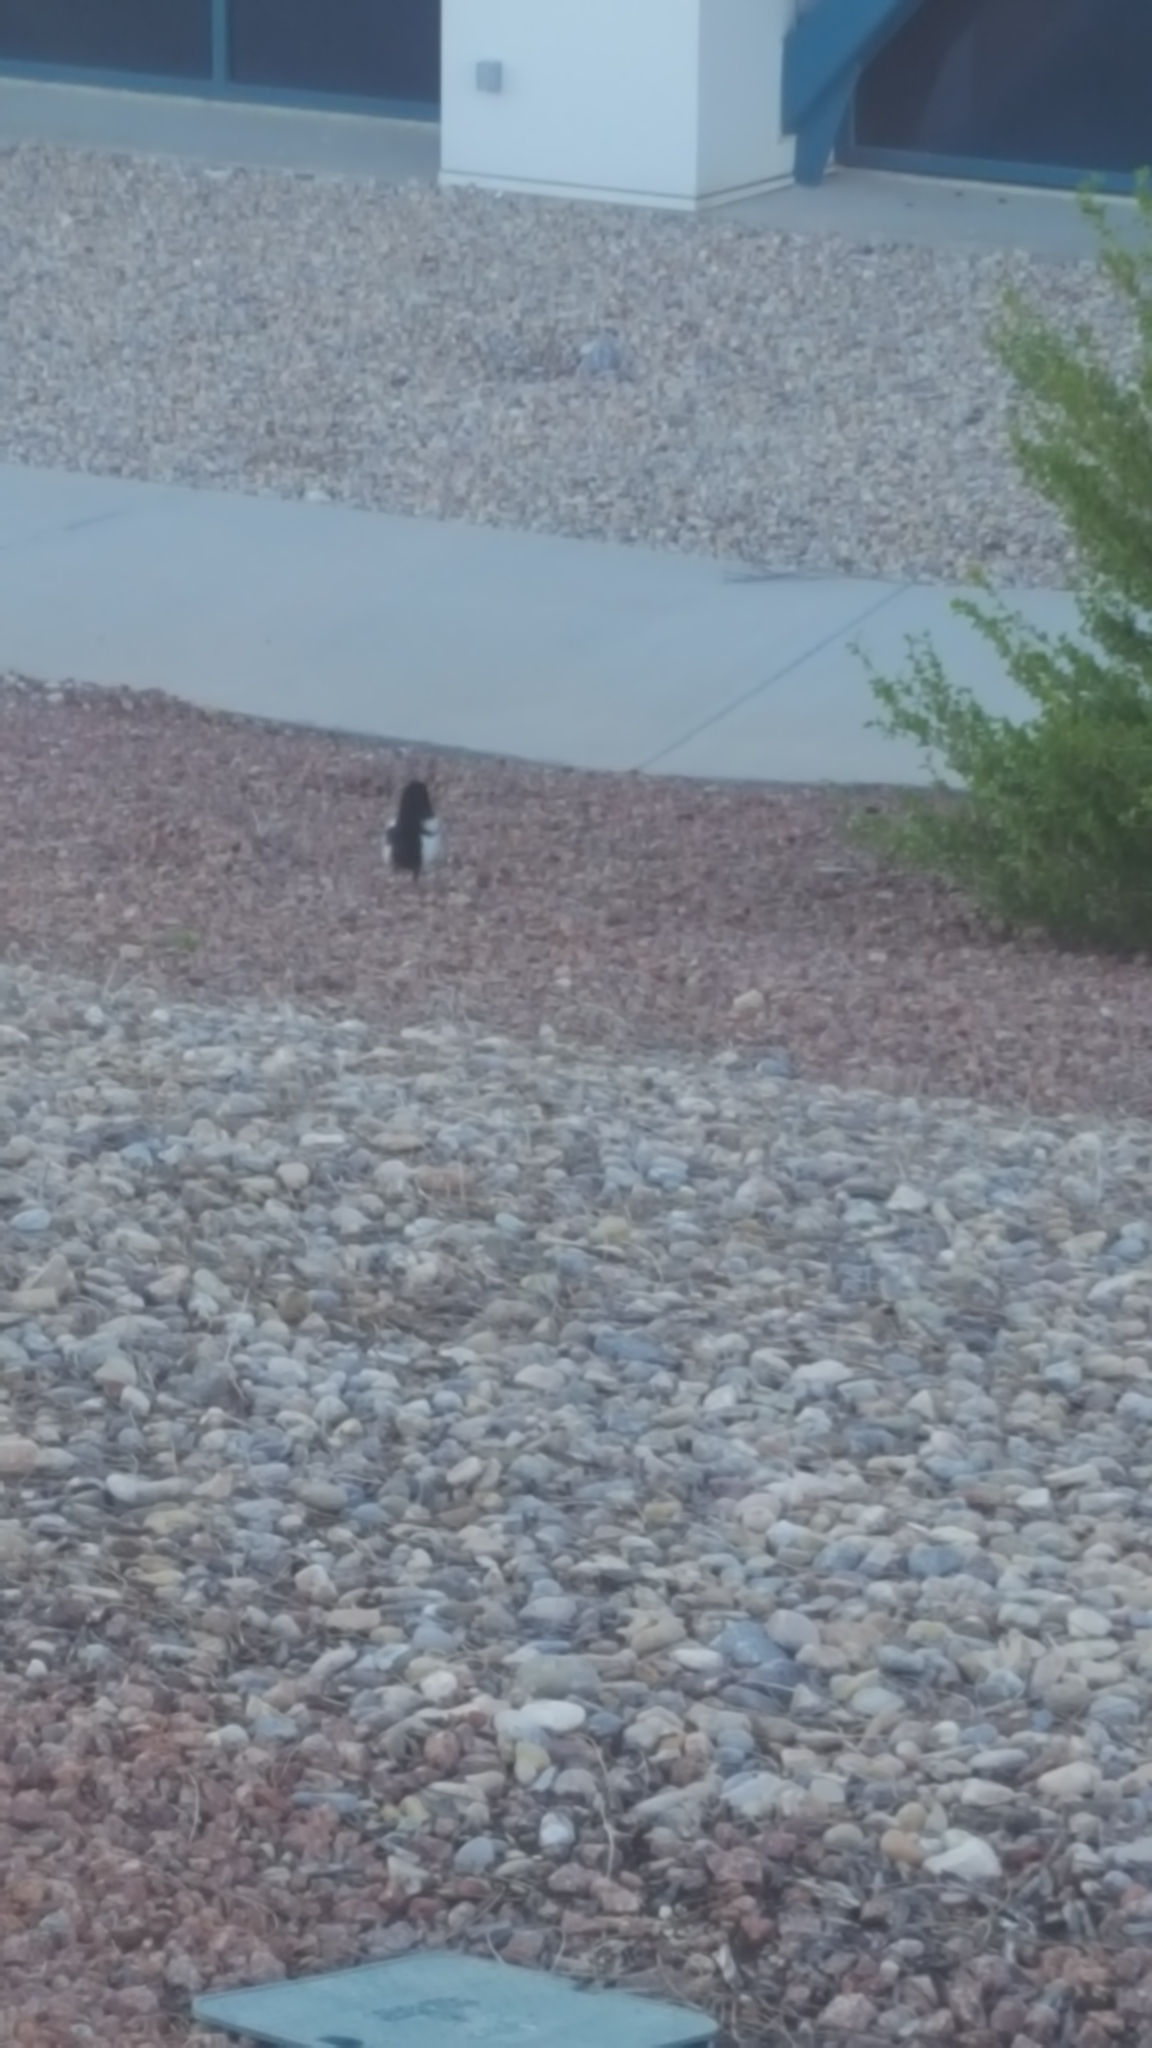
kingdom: Animalia
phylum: Chordata
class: Aves
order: Passeriformes
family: Corvidae
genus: Pica
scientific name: Pica hudsonia
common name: Black-billed magpie
